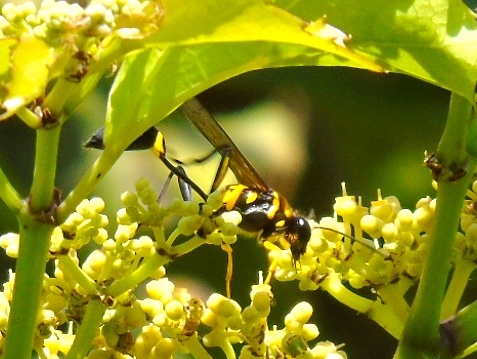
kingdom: Animalia
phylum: Arthropoda
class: Insecta
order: Hymenoptera
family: Sphecidae
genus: Sceliphron
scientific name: Sceliphron
